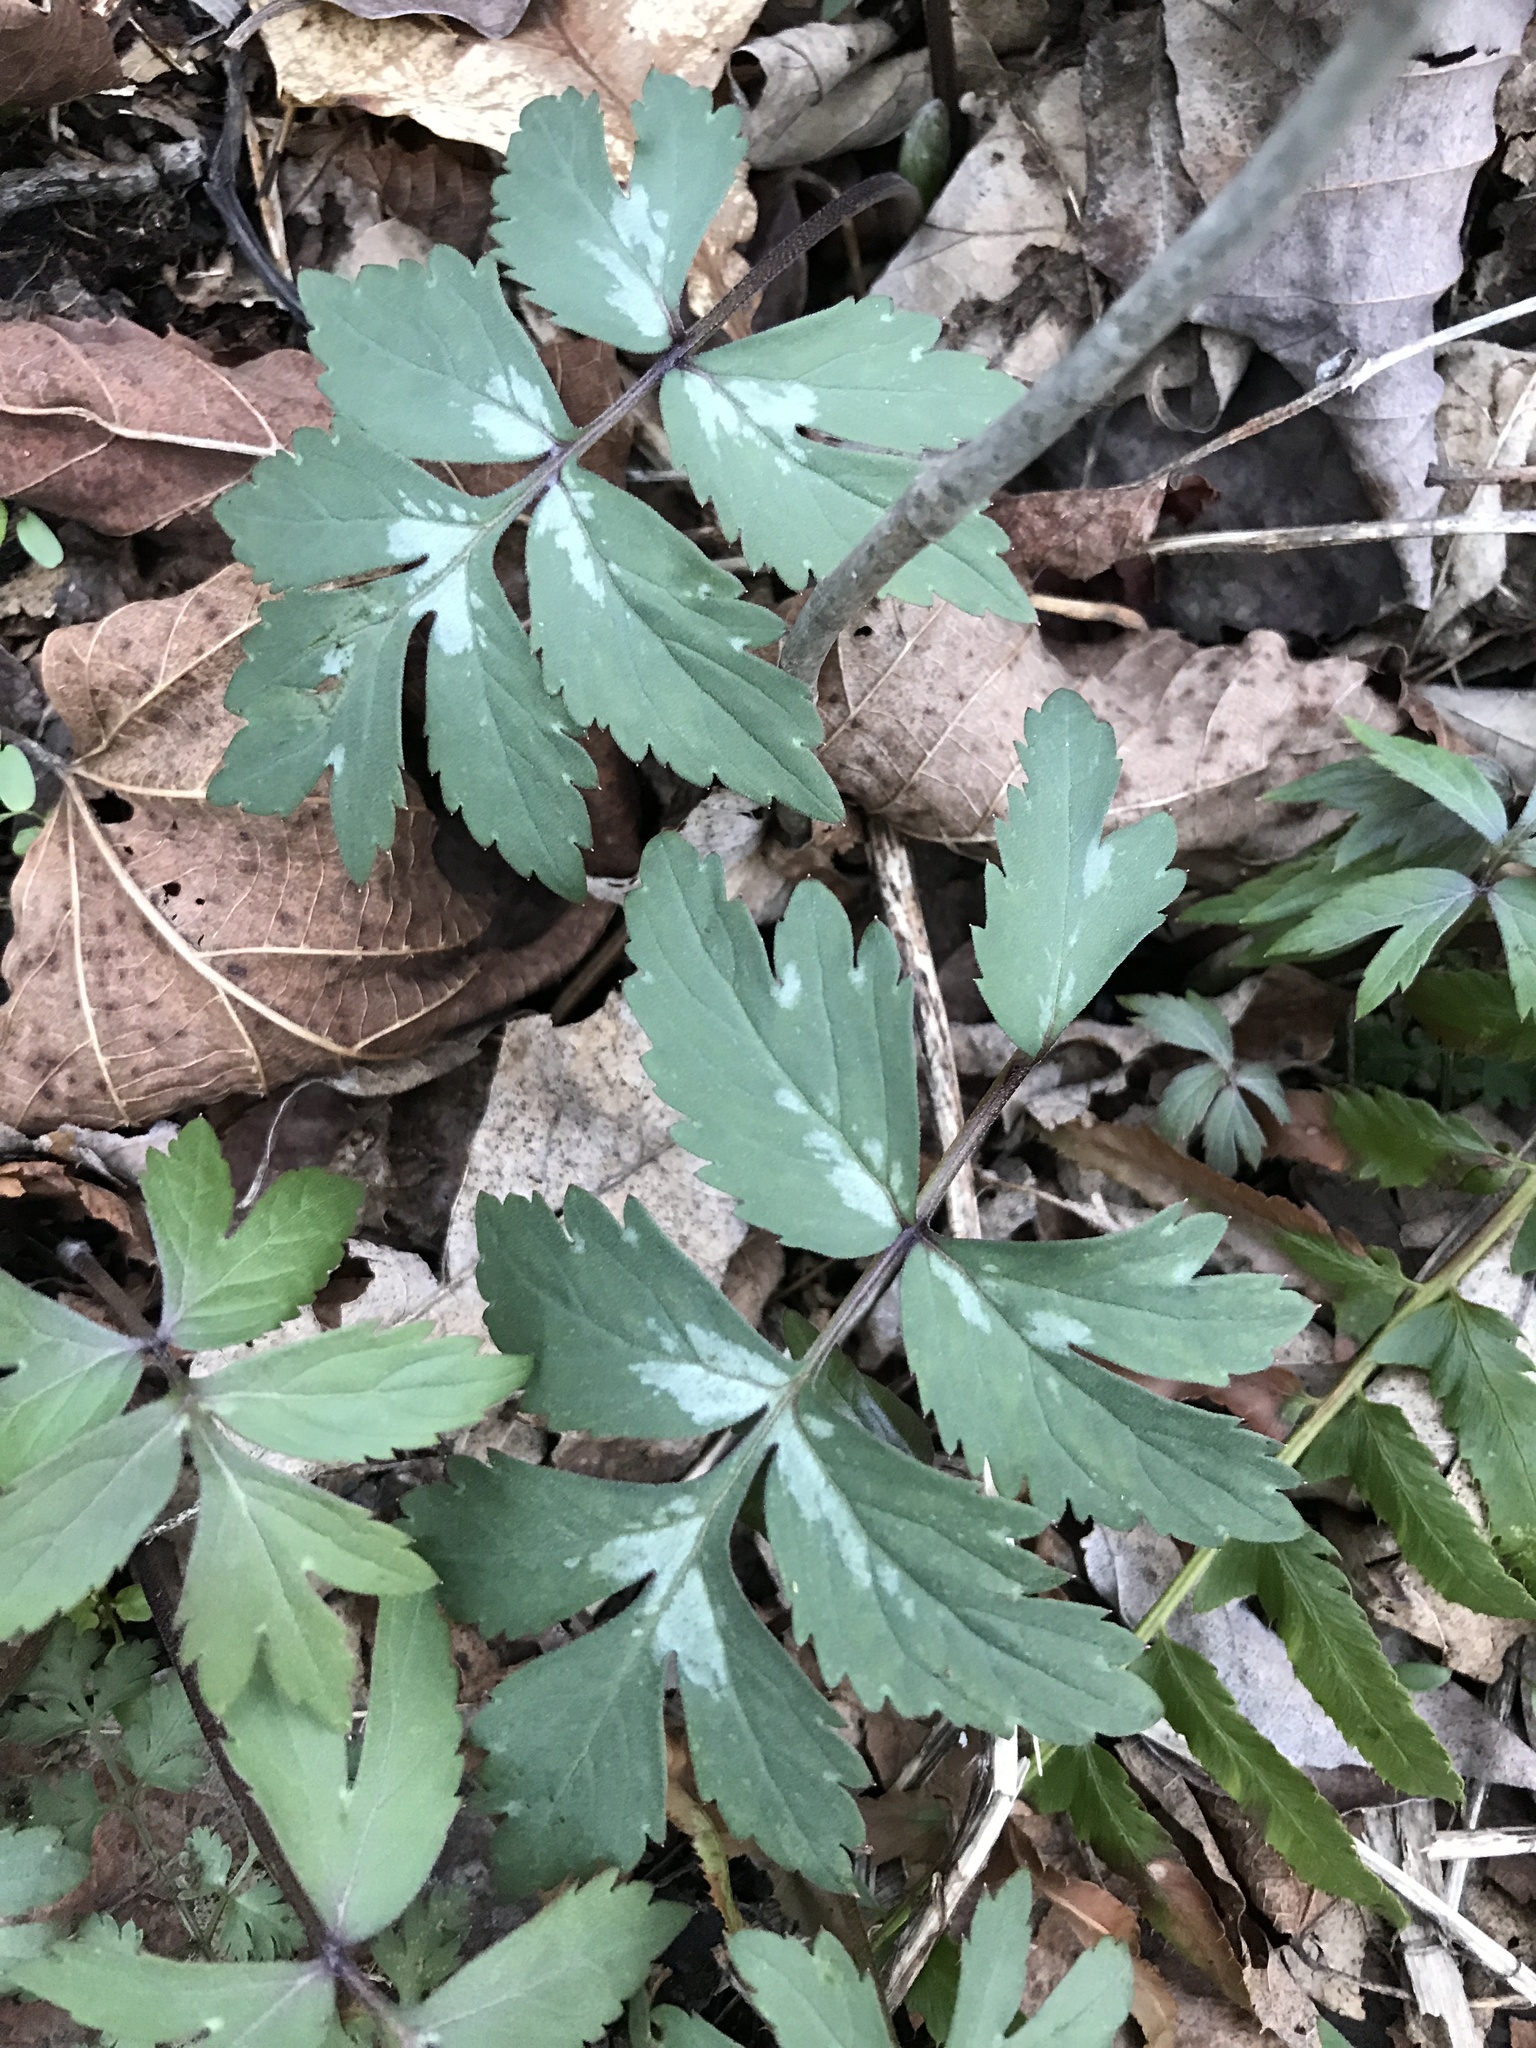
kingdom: Plantae
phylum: Tracheophyta
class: Magnoliopsida
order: Boraginales
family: Hydrophyllaceae
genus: Hydrophyllum
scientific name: Hydrophyllum virginianum
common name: Virginia waterleaf
